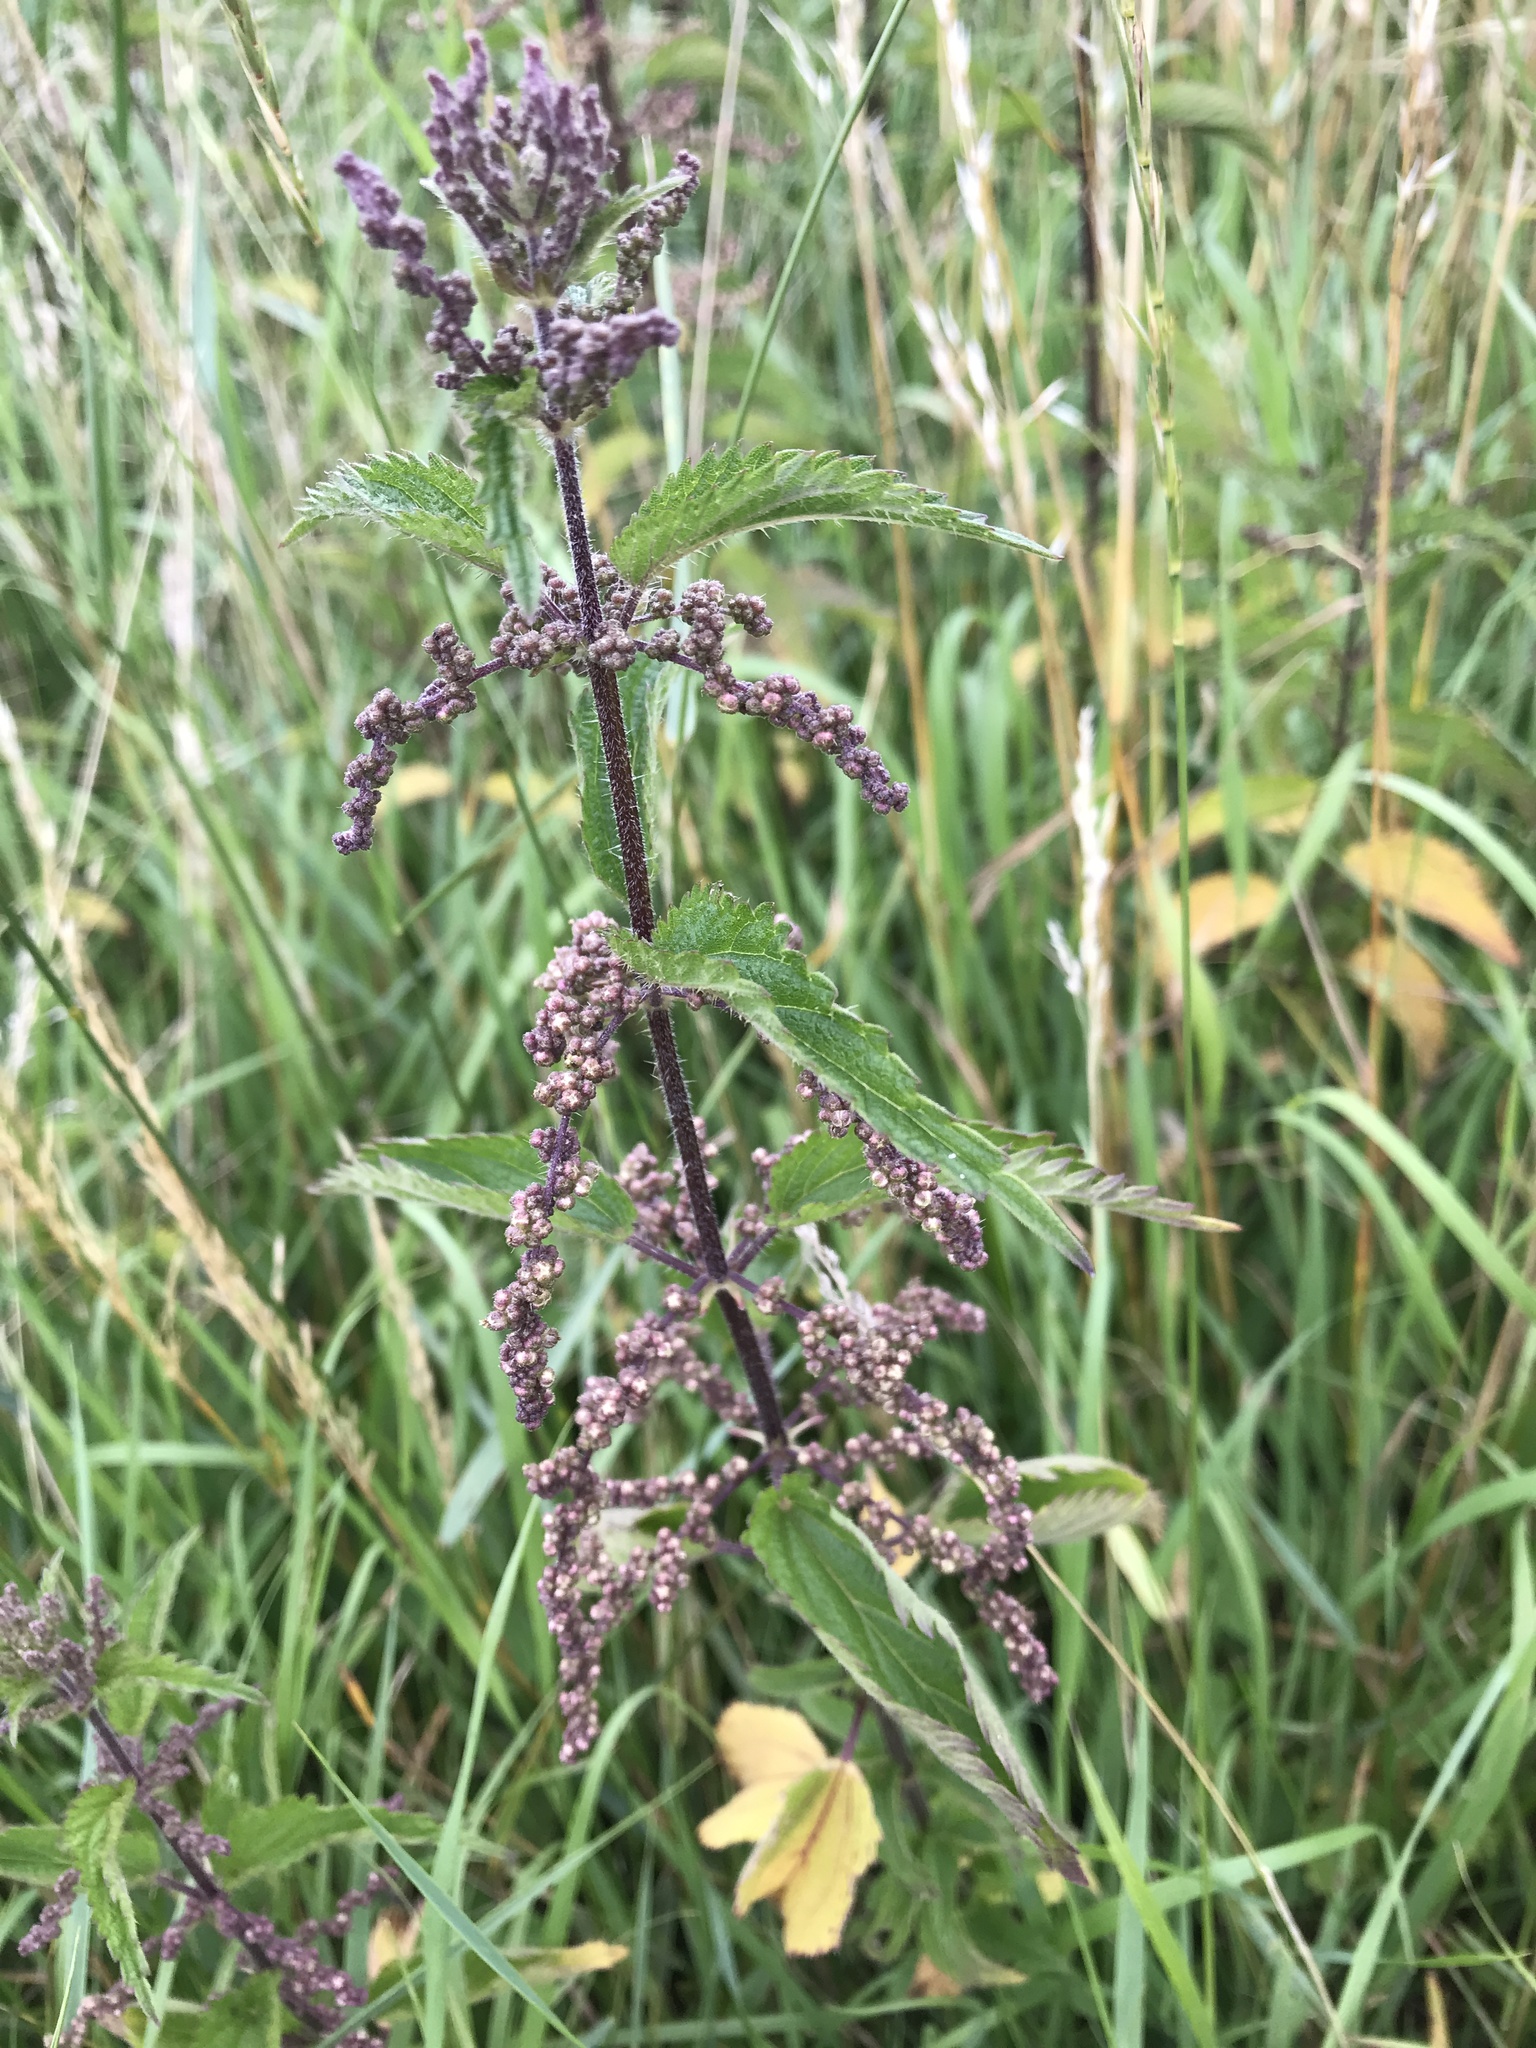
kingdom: Plantae
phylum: Tracheophyta
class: Magnoliopsida
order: Rosales
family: Urticaceae
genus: Urtica
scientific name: Urtica dioica
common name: Common nettle
